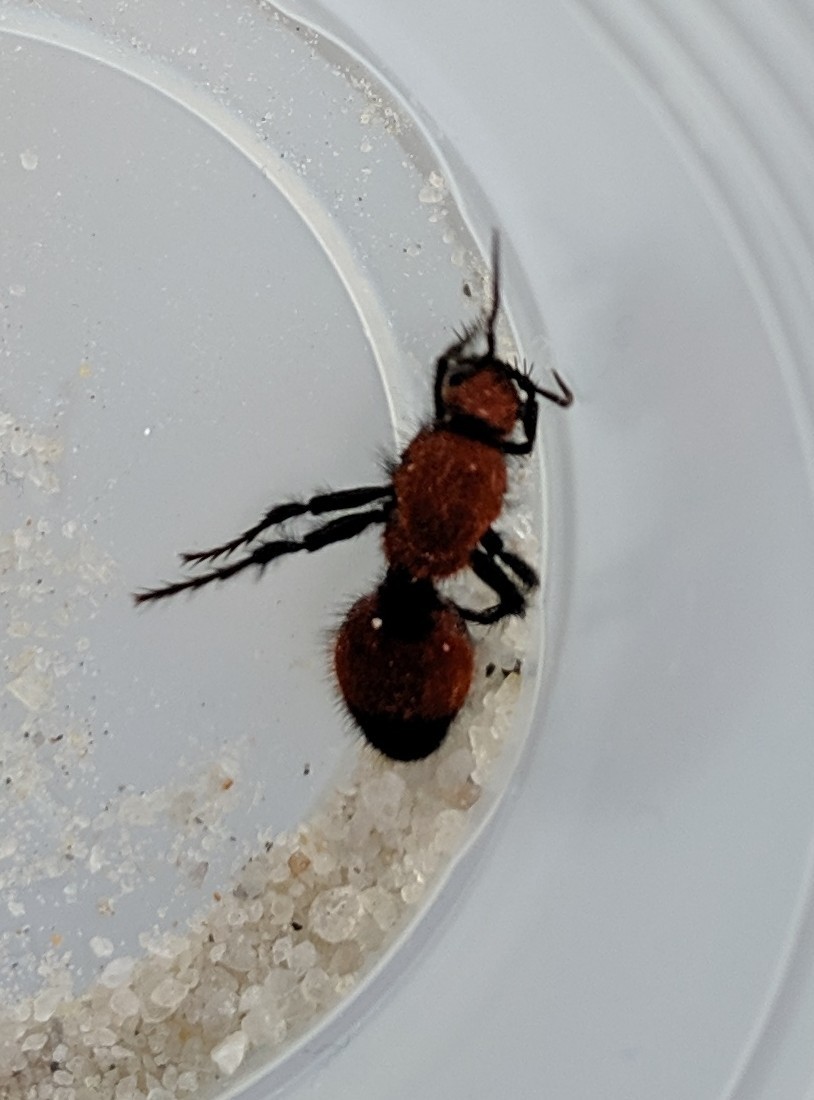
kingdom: Animalia
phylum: Arthropoda
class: Insecta
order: Hymenoptera
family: Mutillidae
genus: Dasymutilla
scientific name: Dasymutilla
